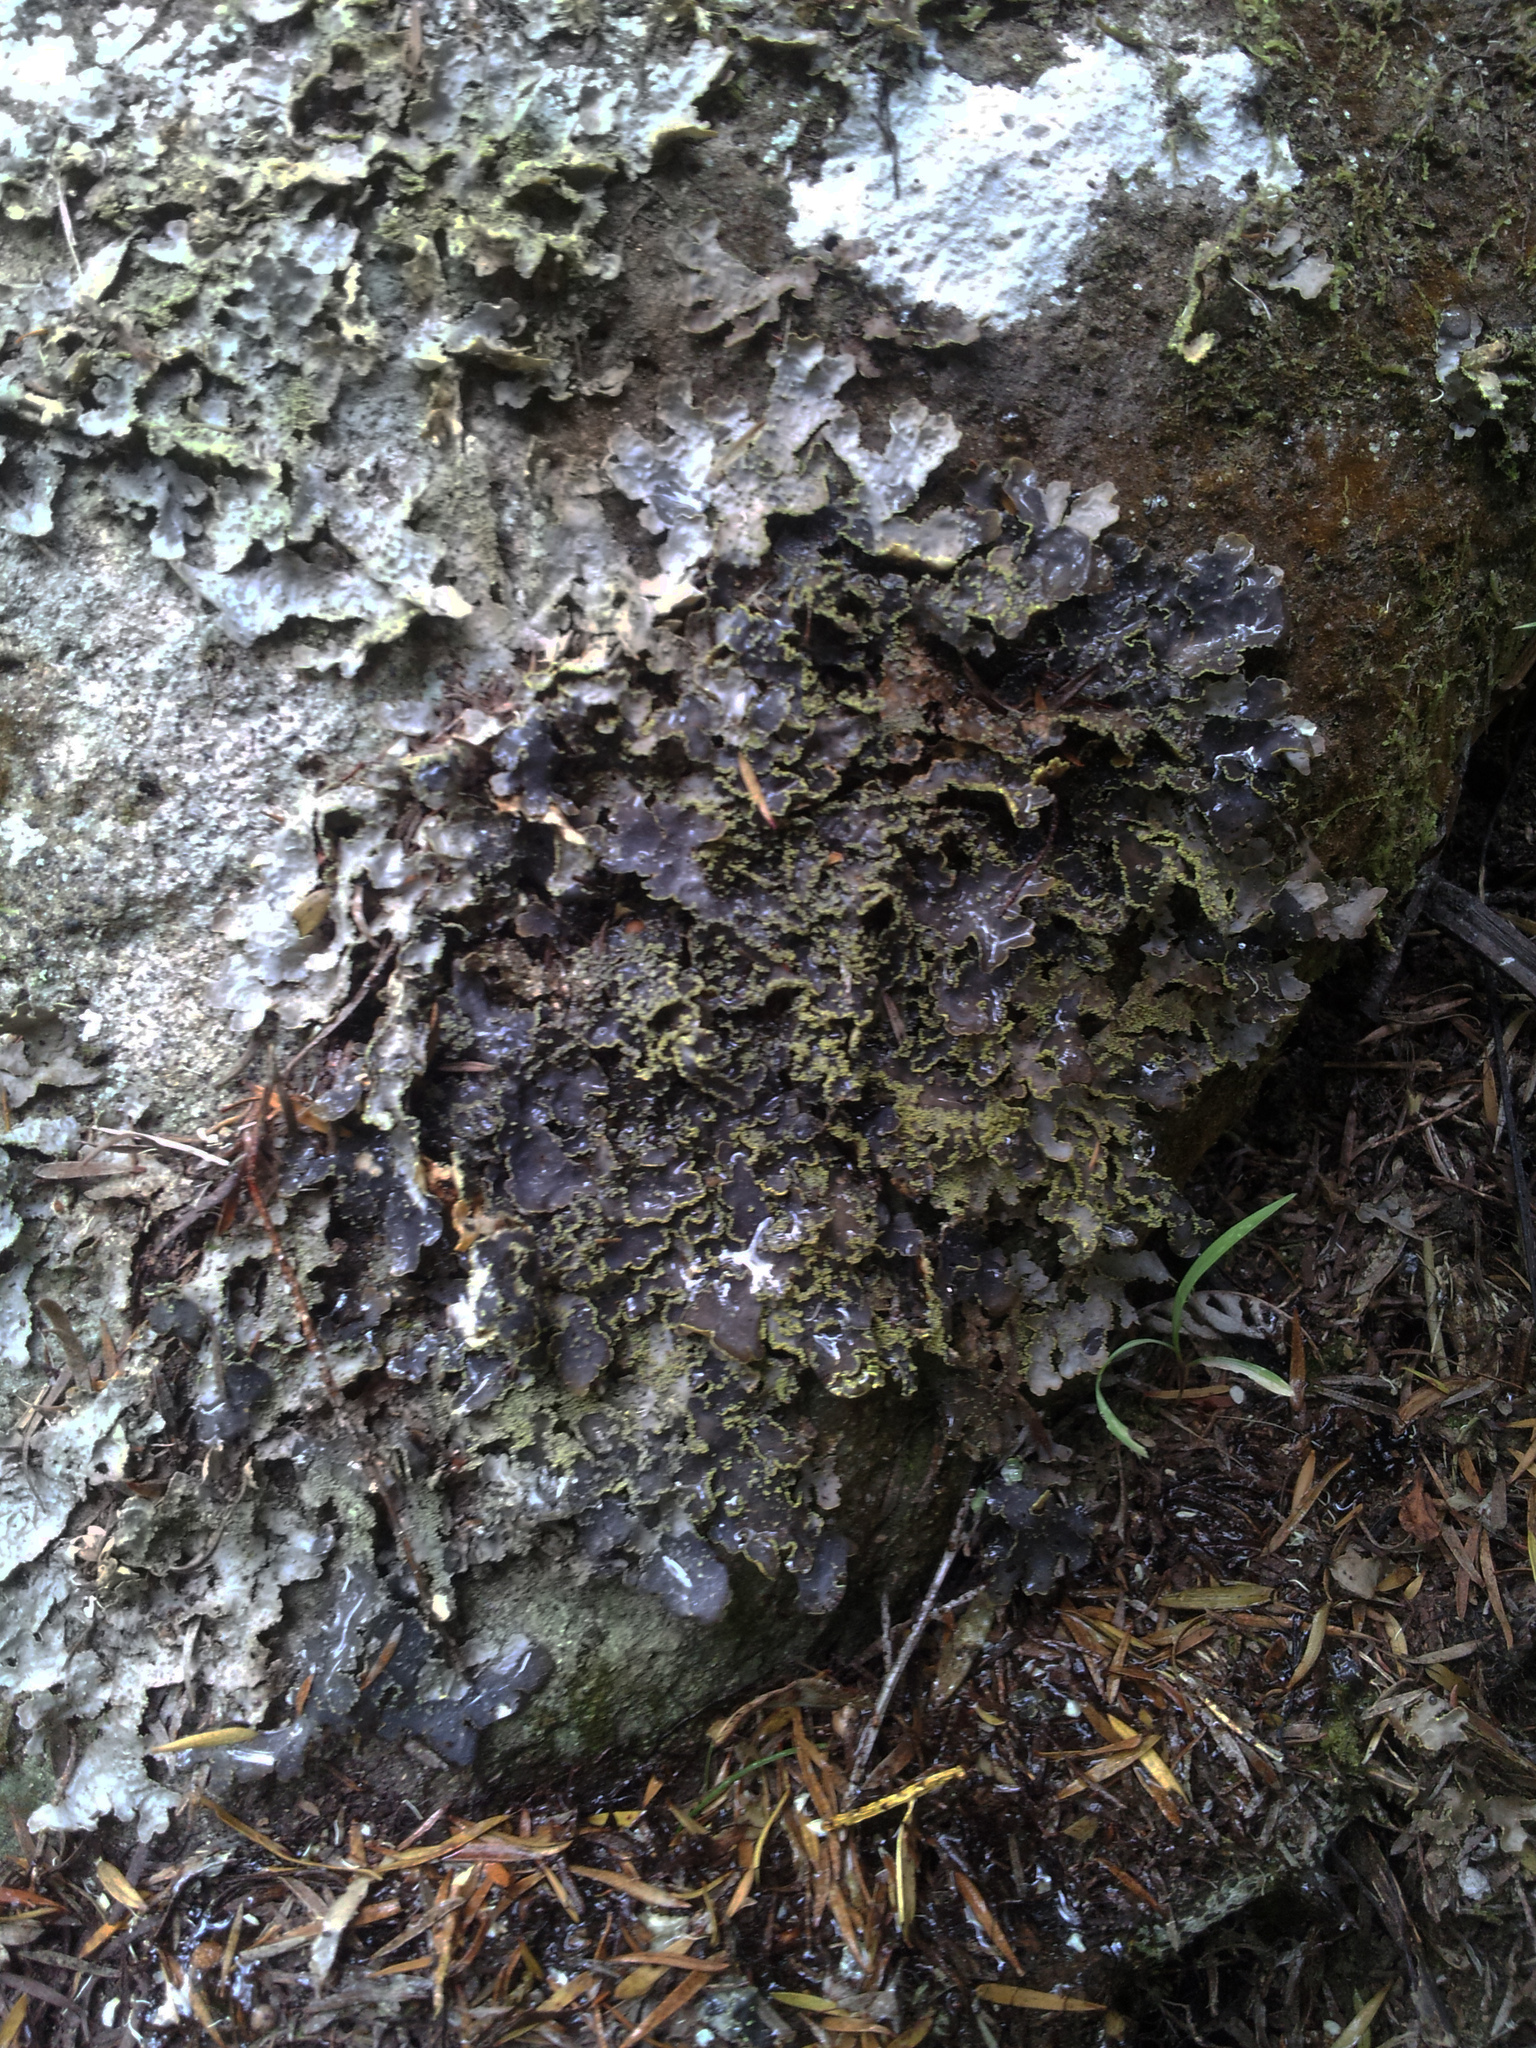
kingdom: Fungi
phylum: Ascomycota
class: Lecanoromycetes
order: Peltigerales
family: Lobariaceae
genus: Pseudocyphellaria
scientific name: Pseudocyphellaria crocata
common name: Golden specklebelly
